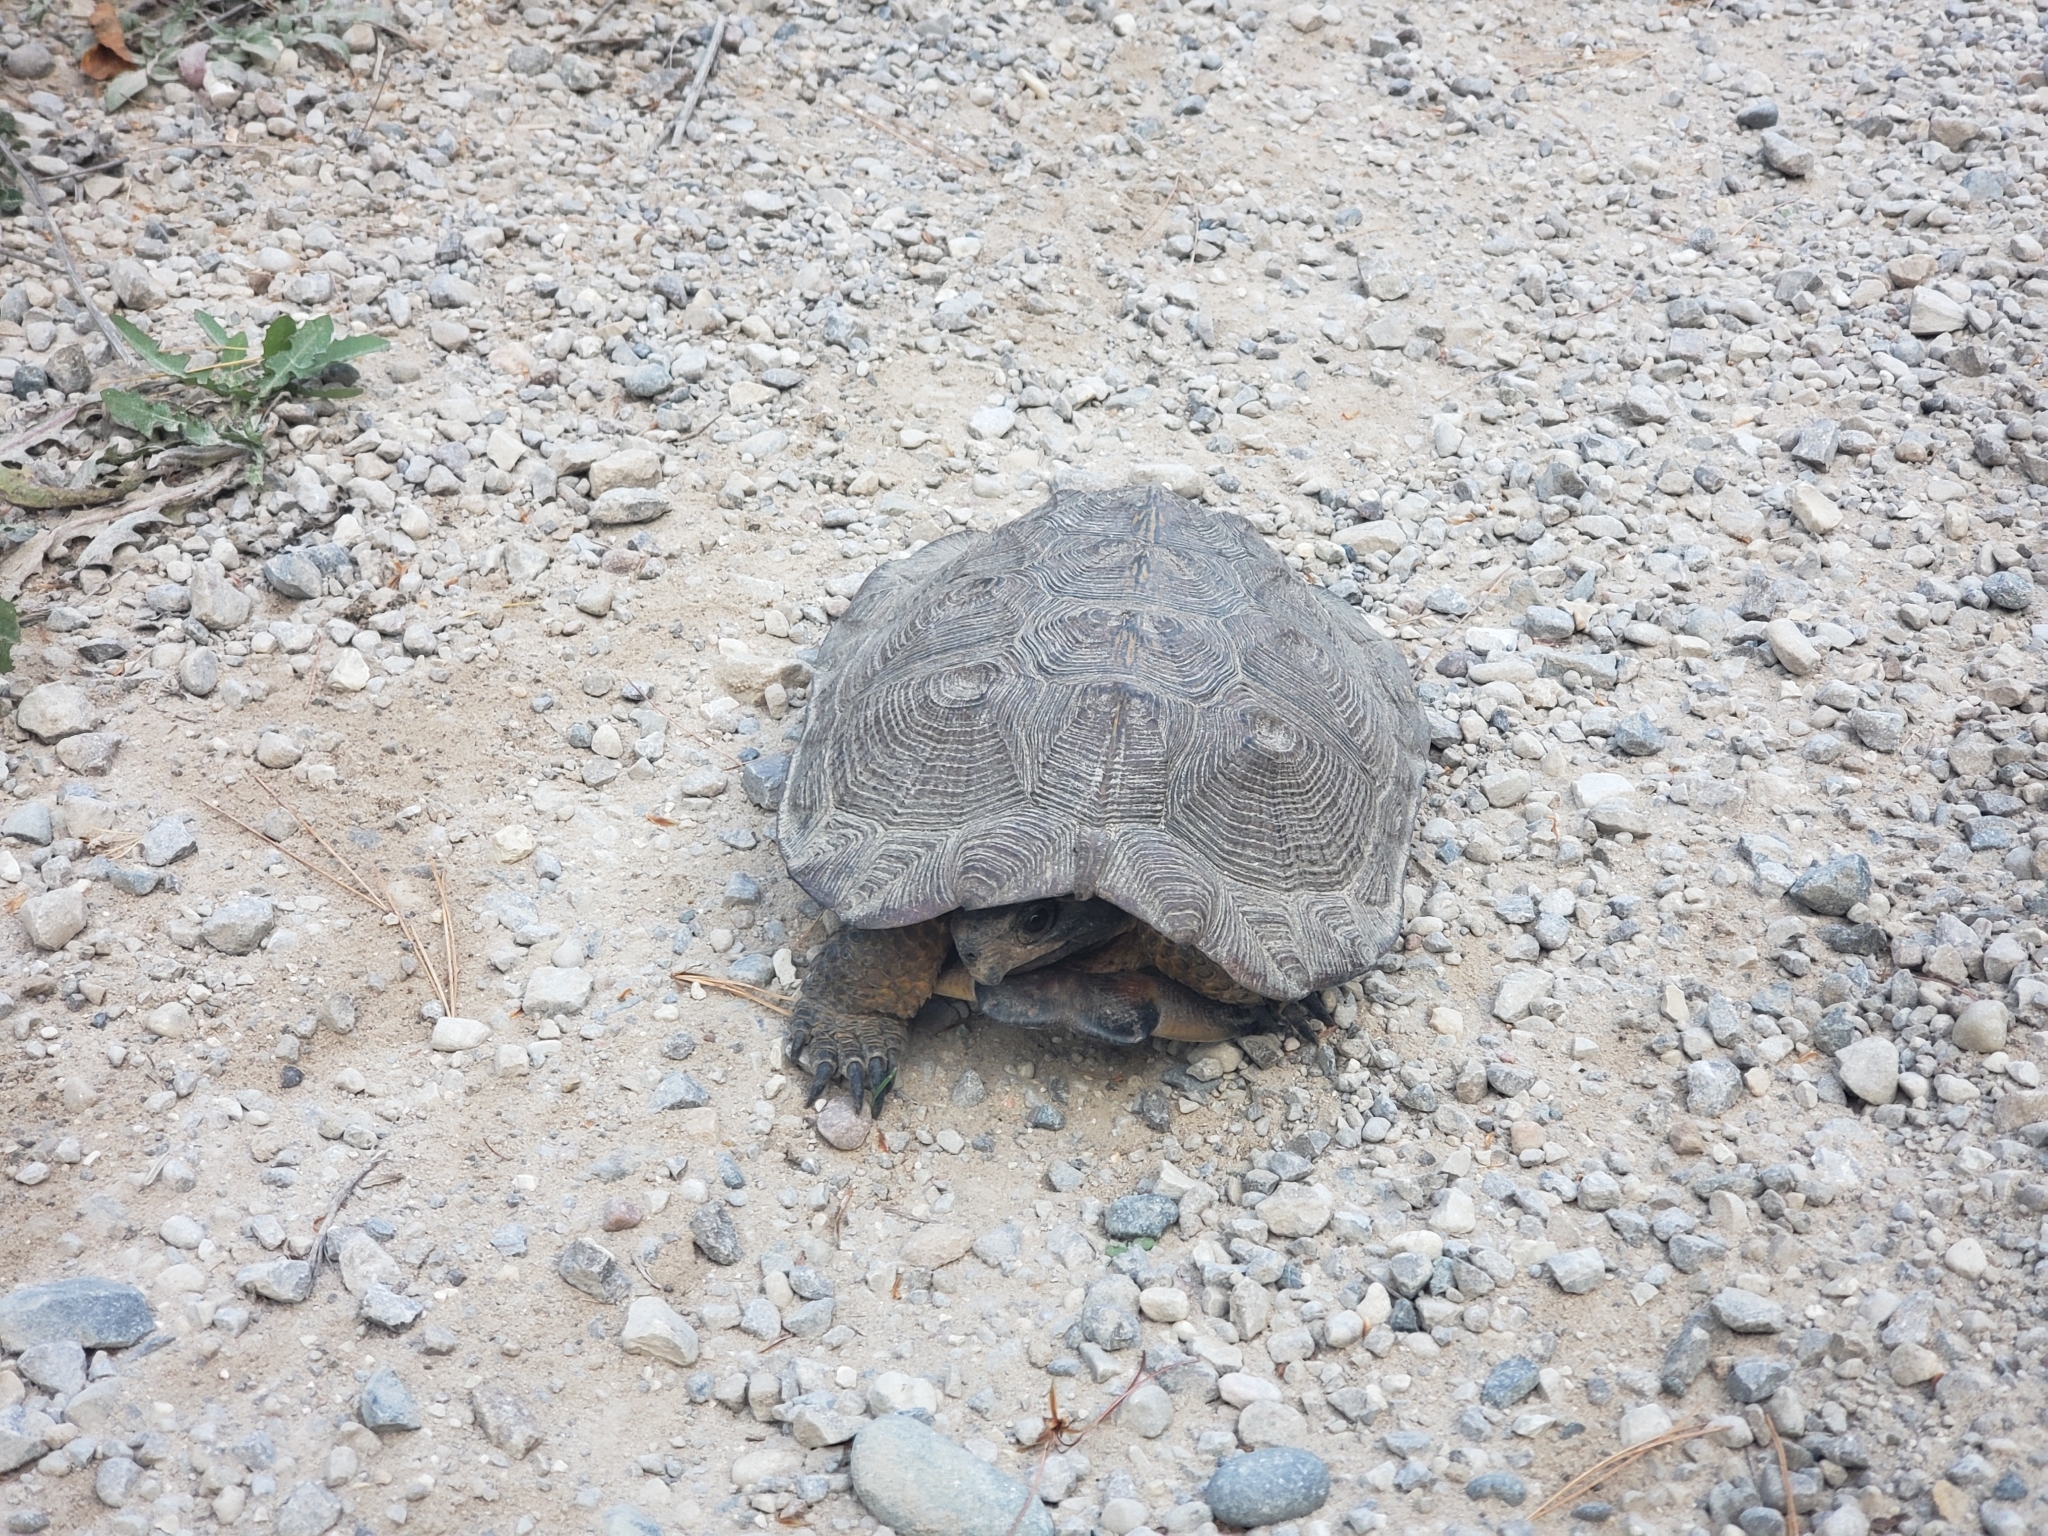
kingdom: Animalia
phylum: Chordata
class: Testudines
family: Emydidae
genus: Glyptemys
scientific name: Glyptemys insculpta
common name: Wood turtle
